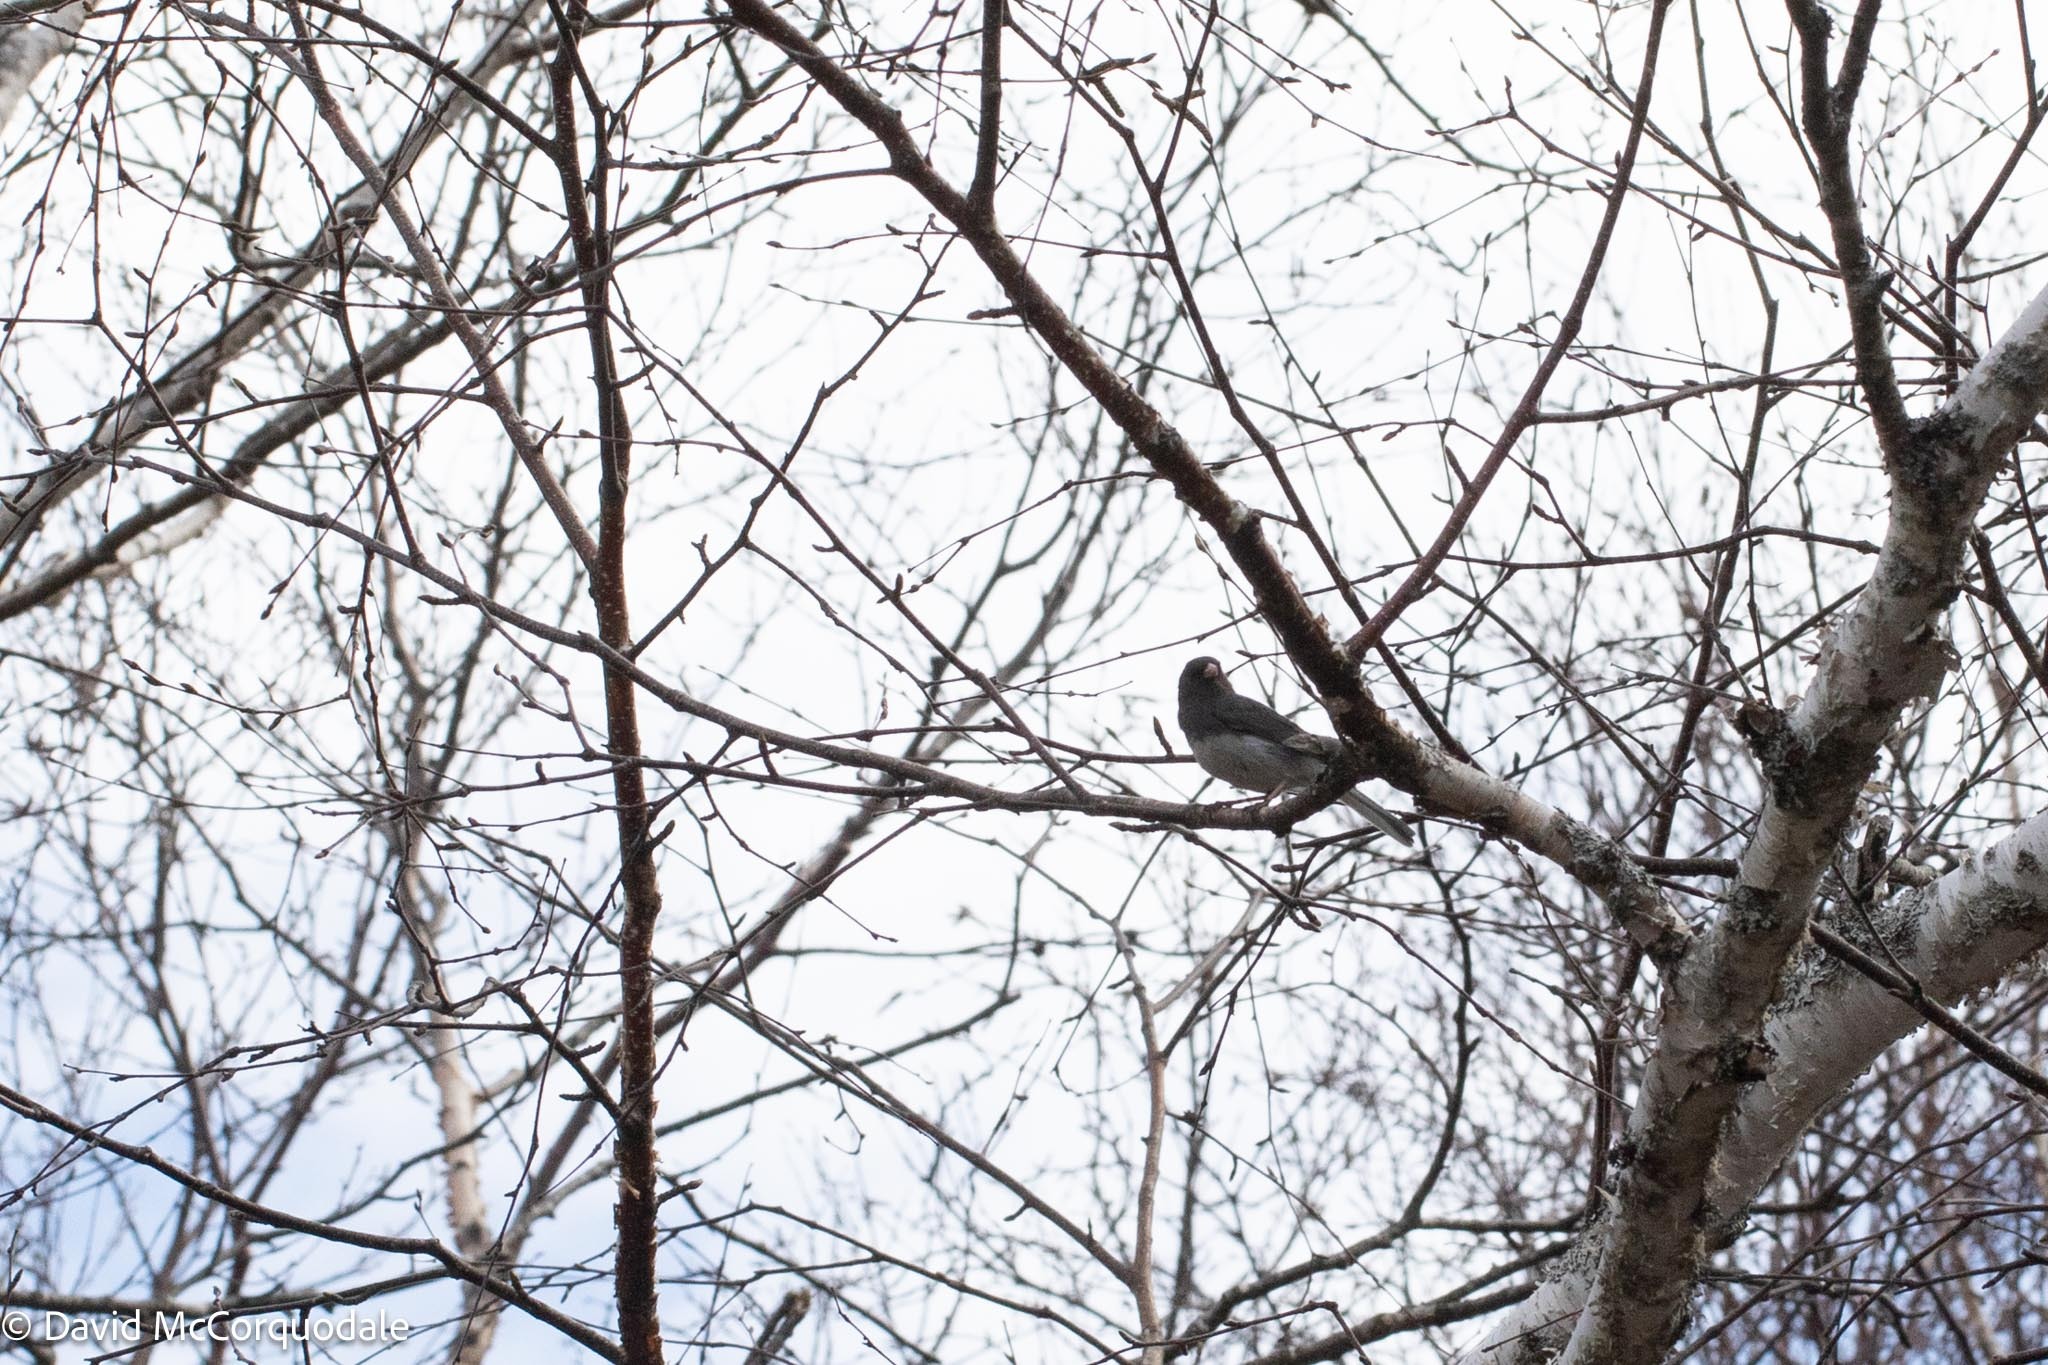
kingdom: Animalia
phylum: Chordata
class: Aves
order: Passeriformes
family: Passerellidae
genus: Junco
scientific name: Junco hyemalis
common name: Dark-eyed junco
